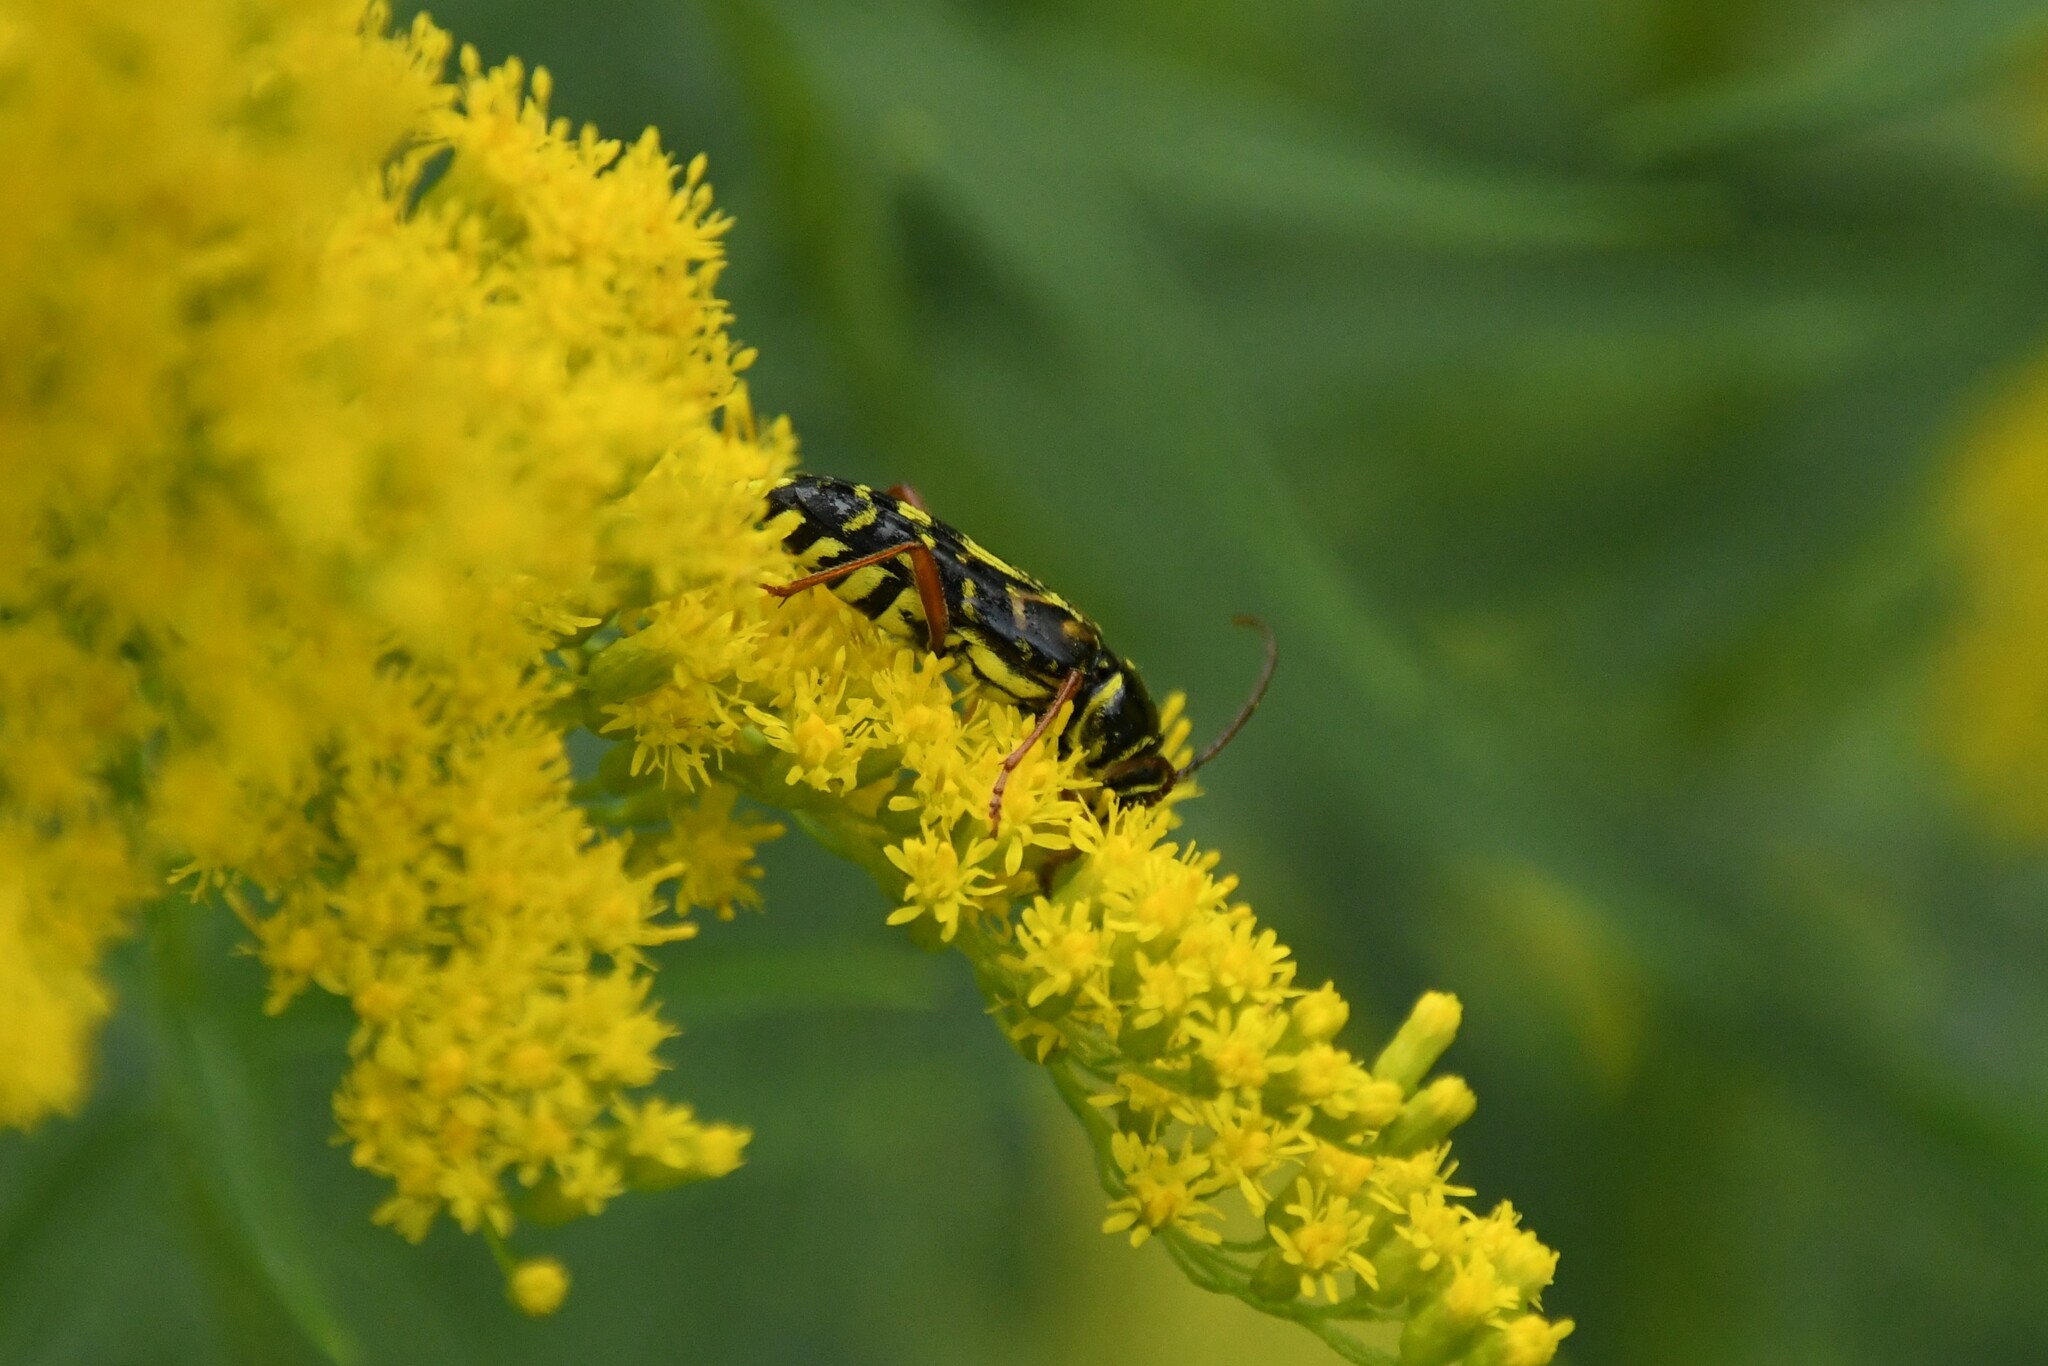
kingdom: Animalia
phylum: Arthropoda
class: Insecta
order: Coleoptera
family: Cerambycidae
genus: Megacyllene
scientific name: Megacyllene robiniae
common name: Locust borer
